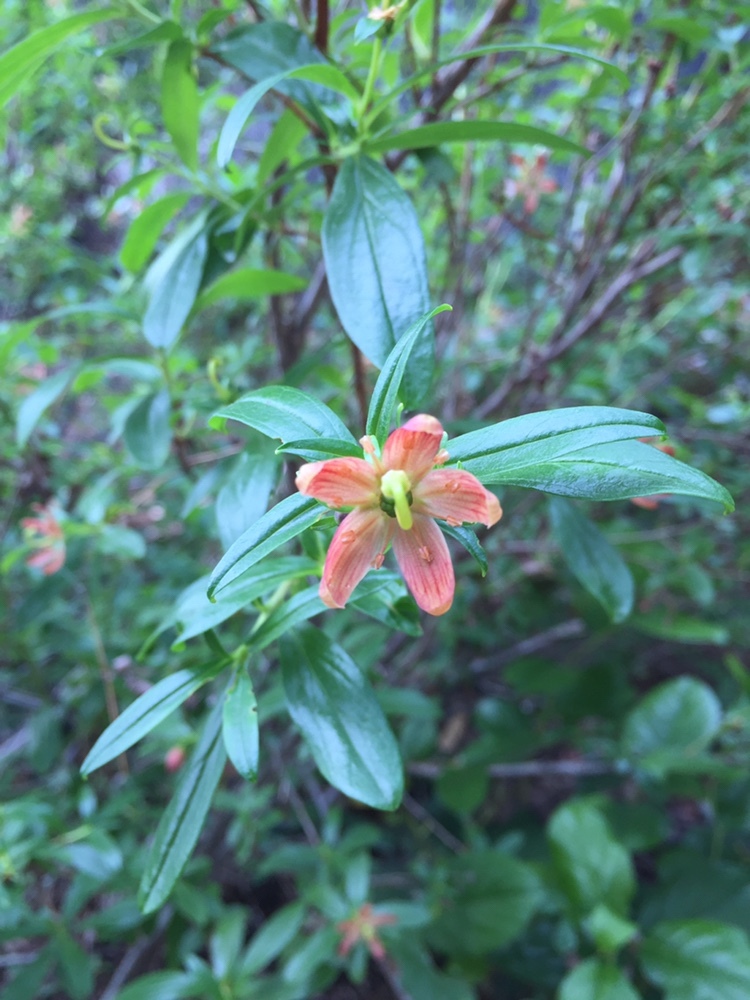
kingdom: Plantae
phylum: Tracheophyta
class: Magnoliopsida
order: Ericales
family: Ericaceae
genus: Elliottia
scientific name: Elliottia pyroliflora
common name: Copperbush
